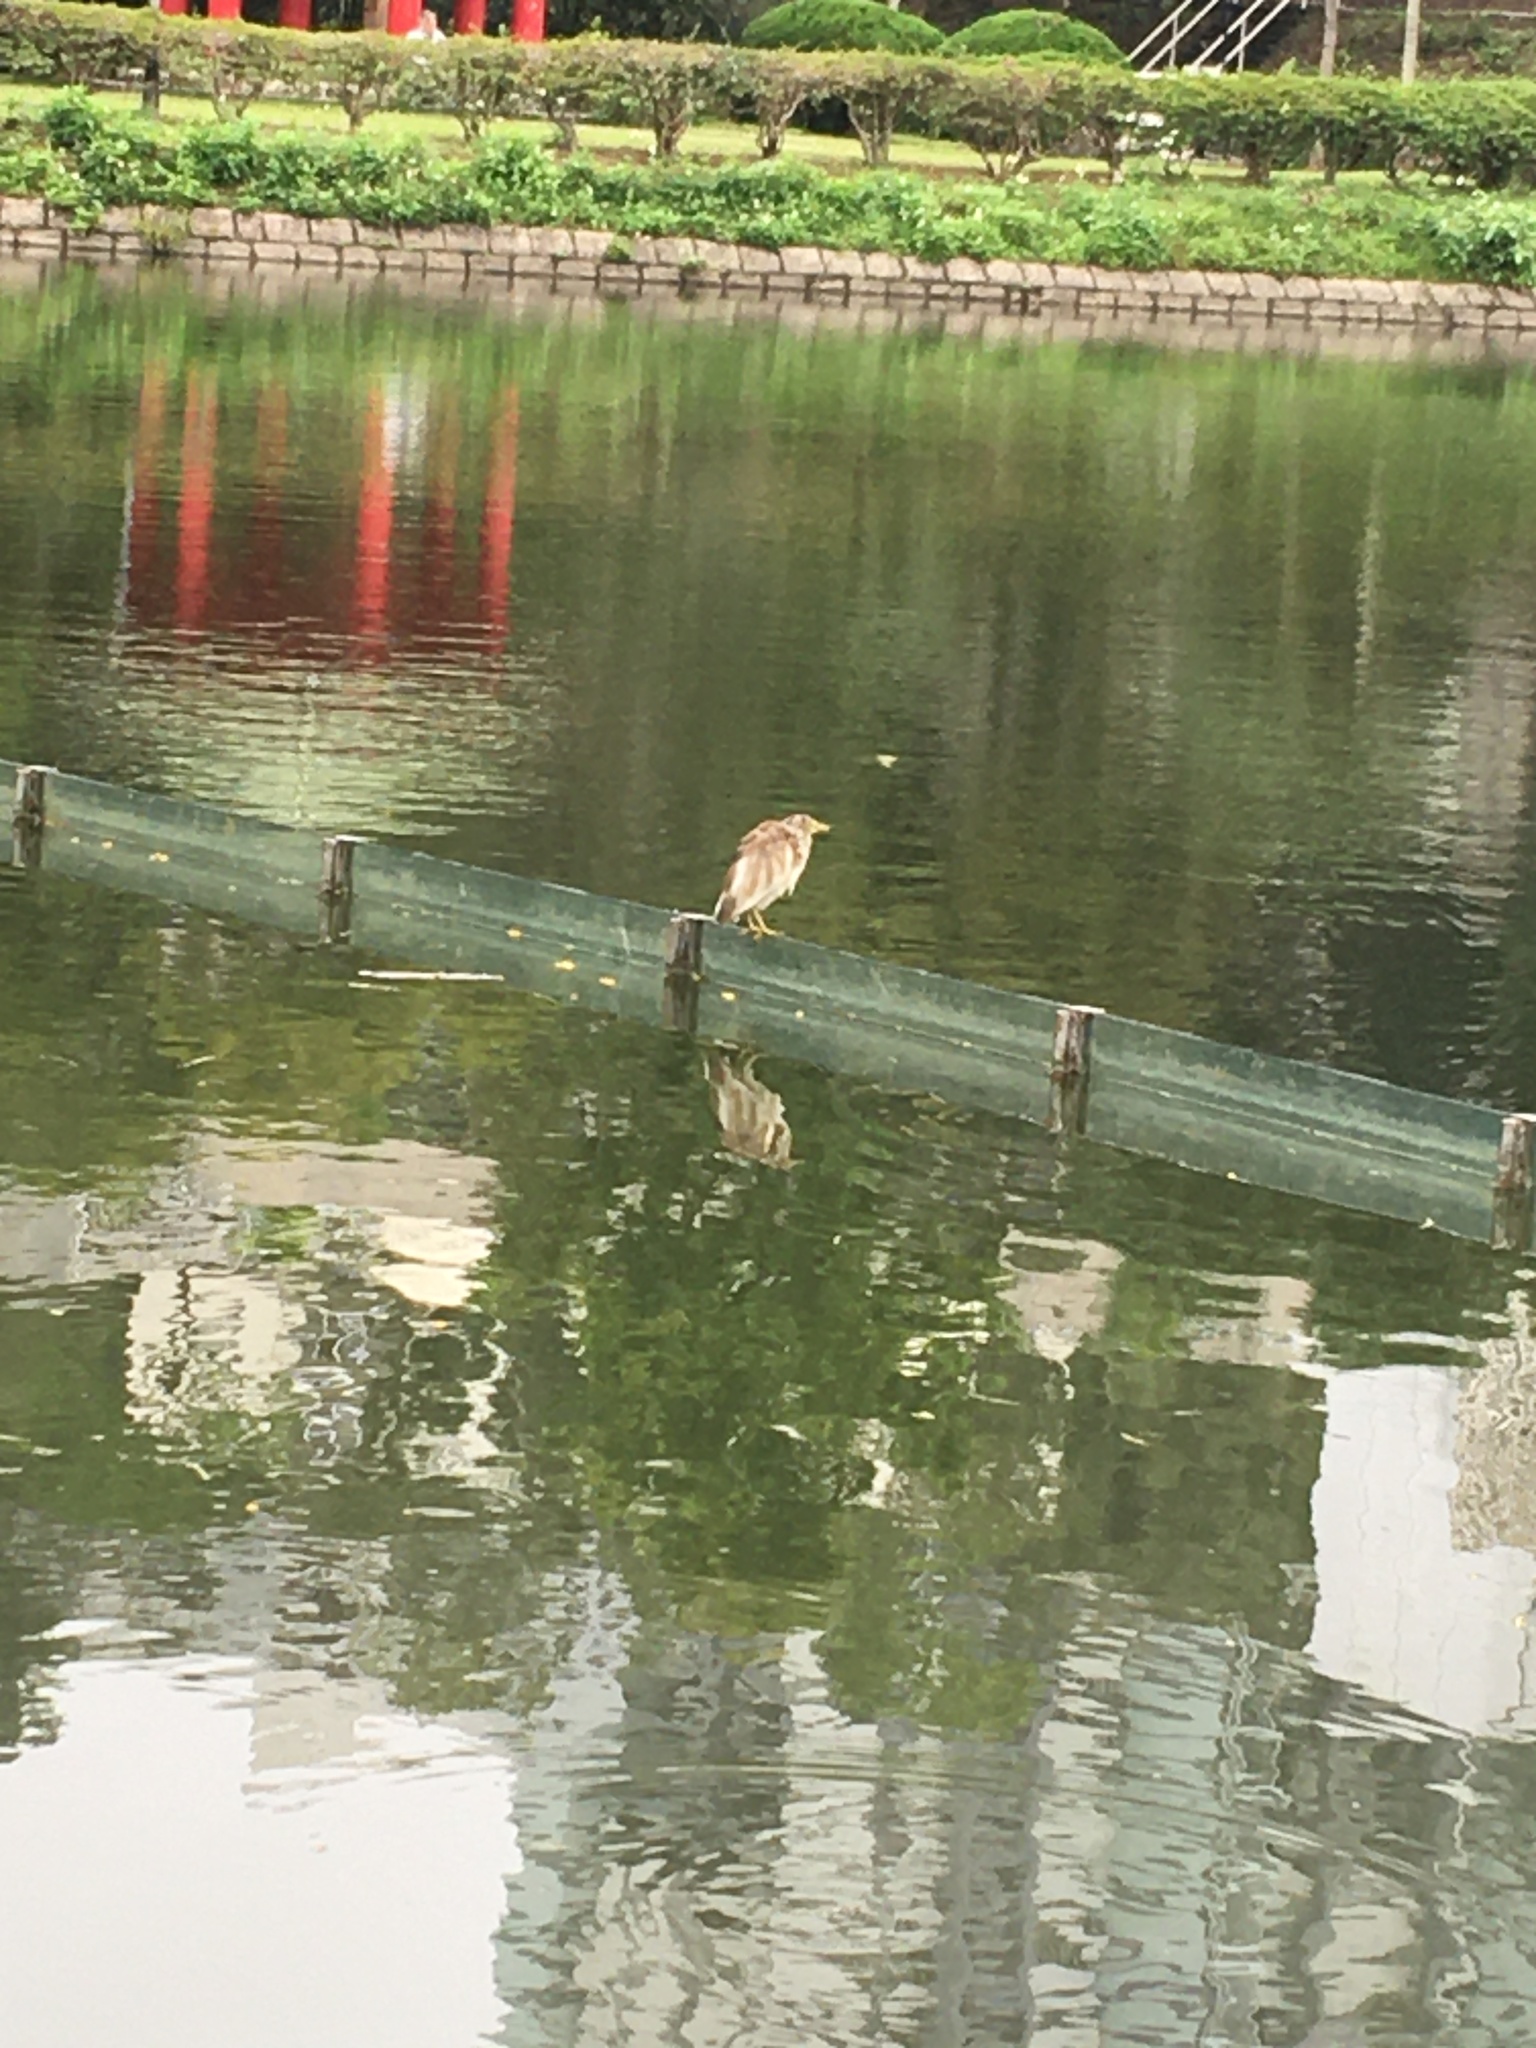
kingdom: Animalia
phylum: Chordata
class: Aves
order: Pelecaniformes
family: Ardeidae
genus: Ardeola
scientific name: Ardeola bacchus
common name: Chinese pond heron
